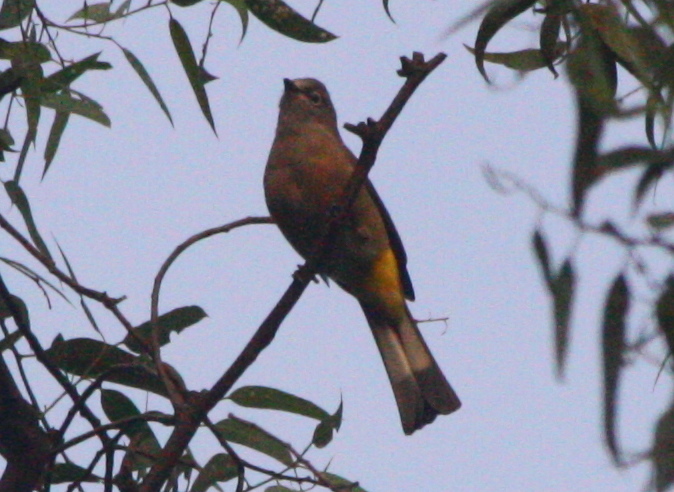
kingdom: Animalia
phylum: Chordata
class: Aves
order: Passeriformes
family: Ptilogonatidae
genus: Ptilogonys
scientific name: Ptilogonys cinereus
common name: Gray silky-flycatcher
